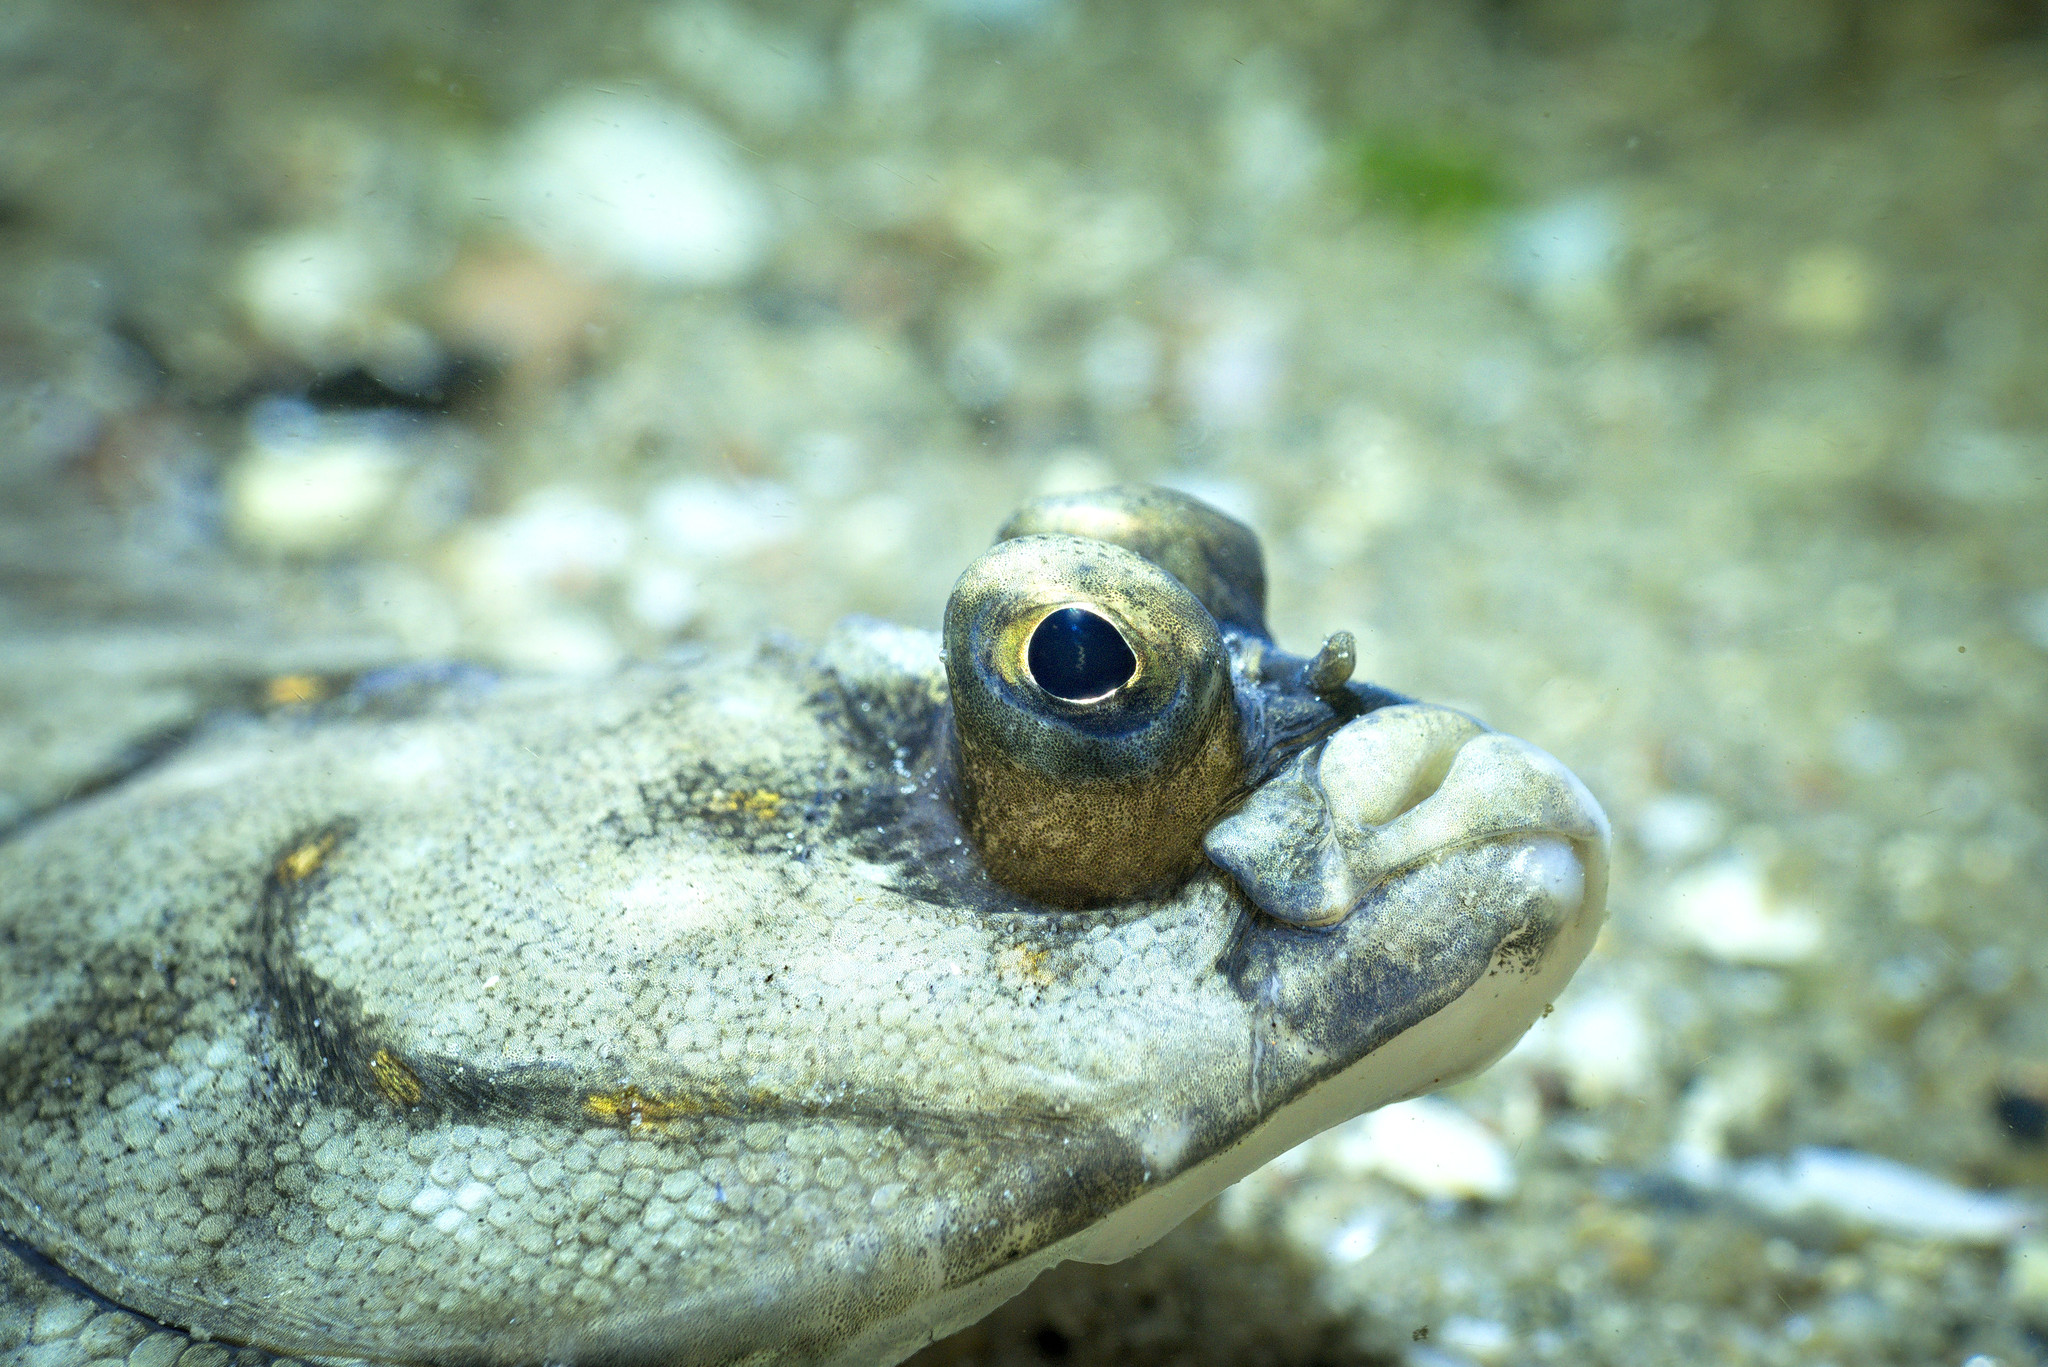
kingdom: Animalia
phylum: Chordata
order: Pleuronectiformes
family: Pleuronectidae
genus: Pleuronectes
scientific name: Pleuronectes platessa
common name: Plaice
